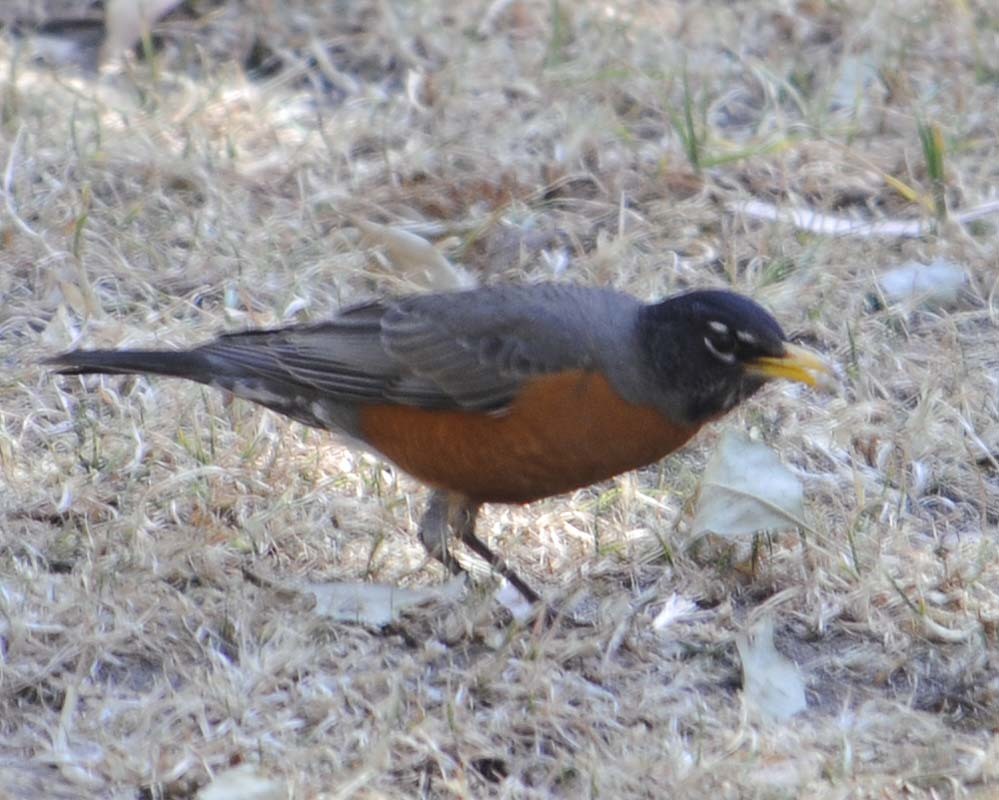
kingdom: Animalia
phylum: Chordata
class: Aves
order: Passeriformes
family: Turdidae
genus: Turdus
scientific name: Turdus migratorius
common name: American robin
